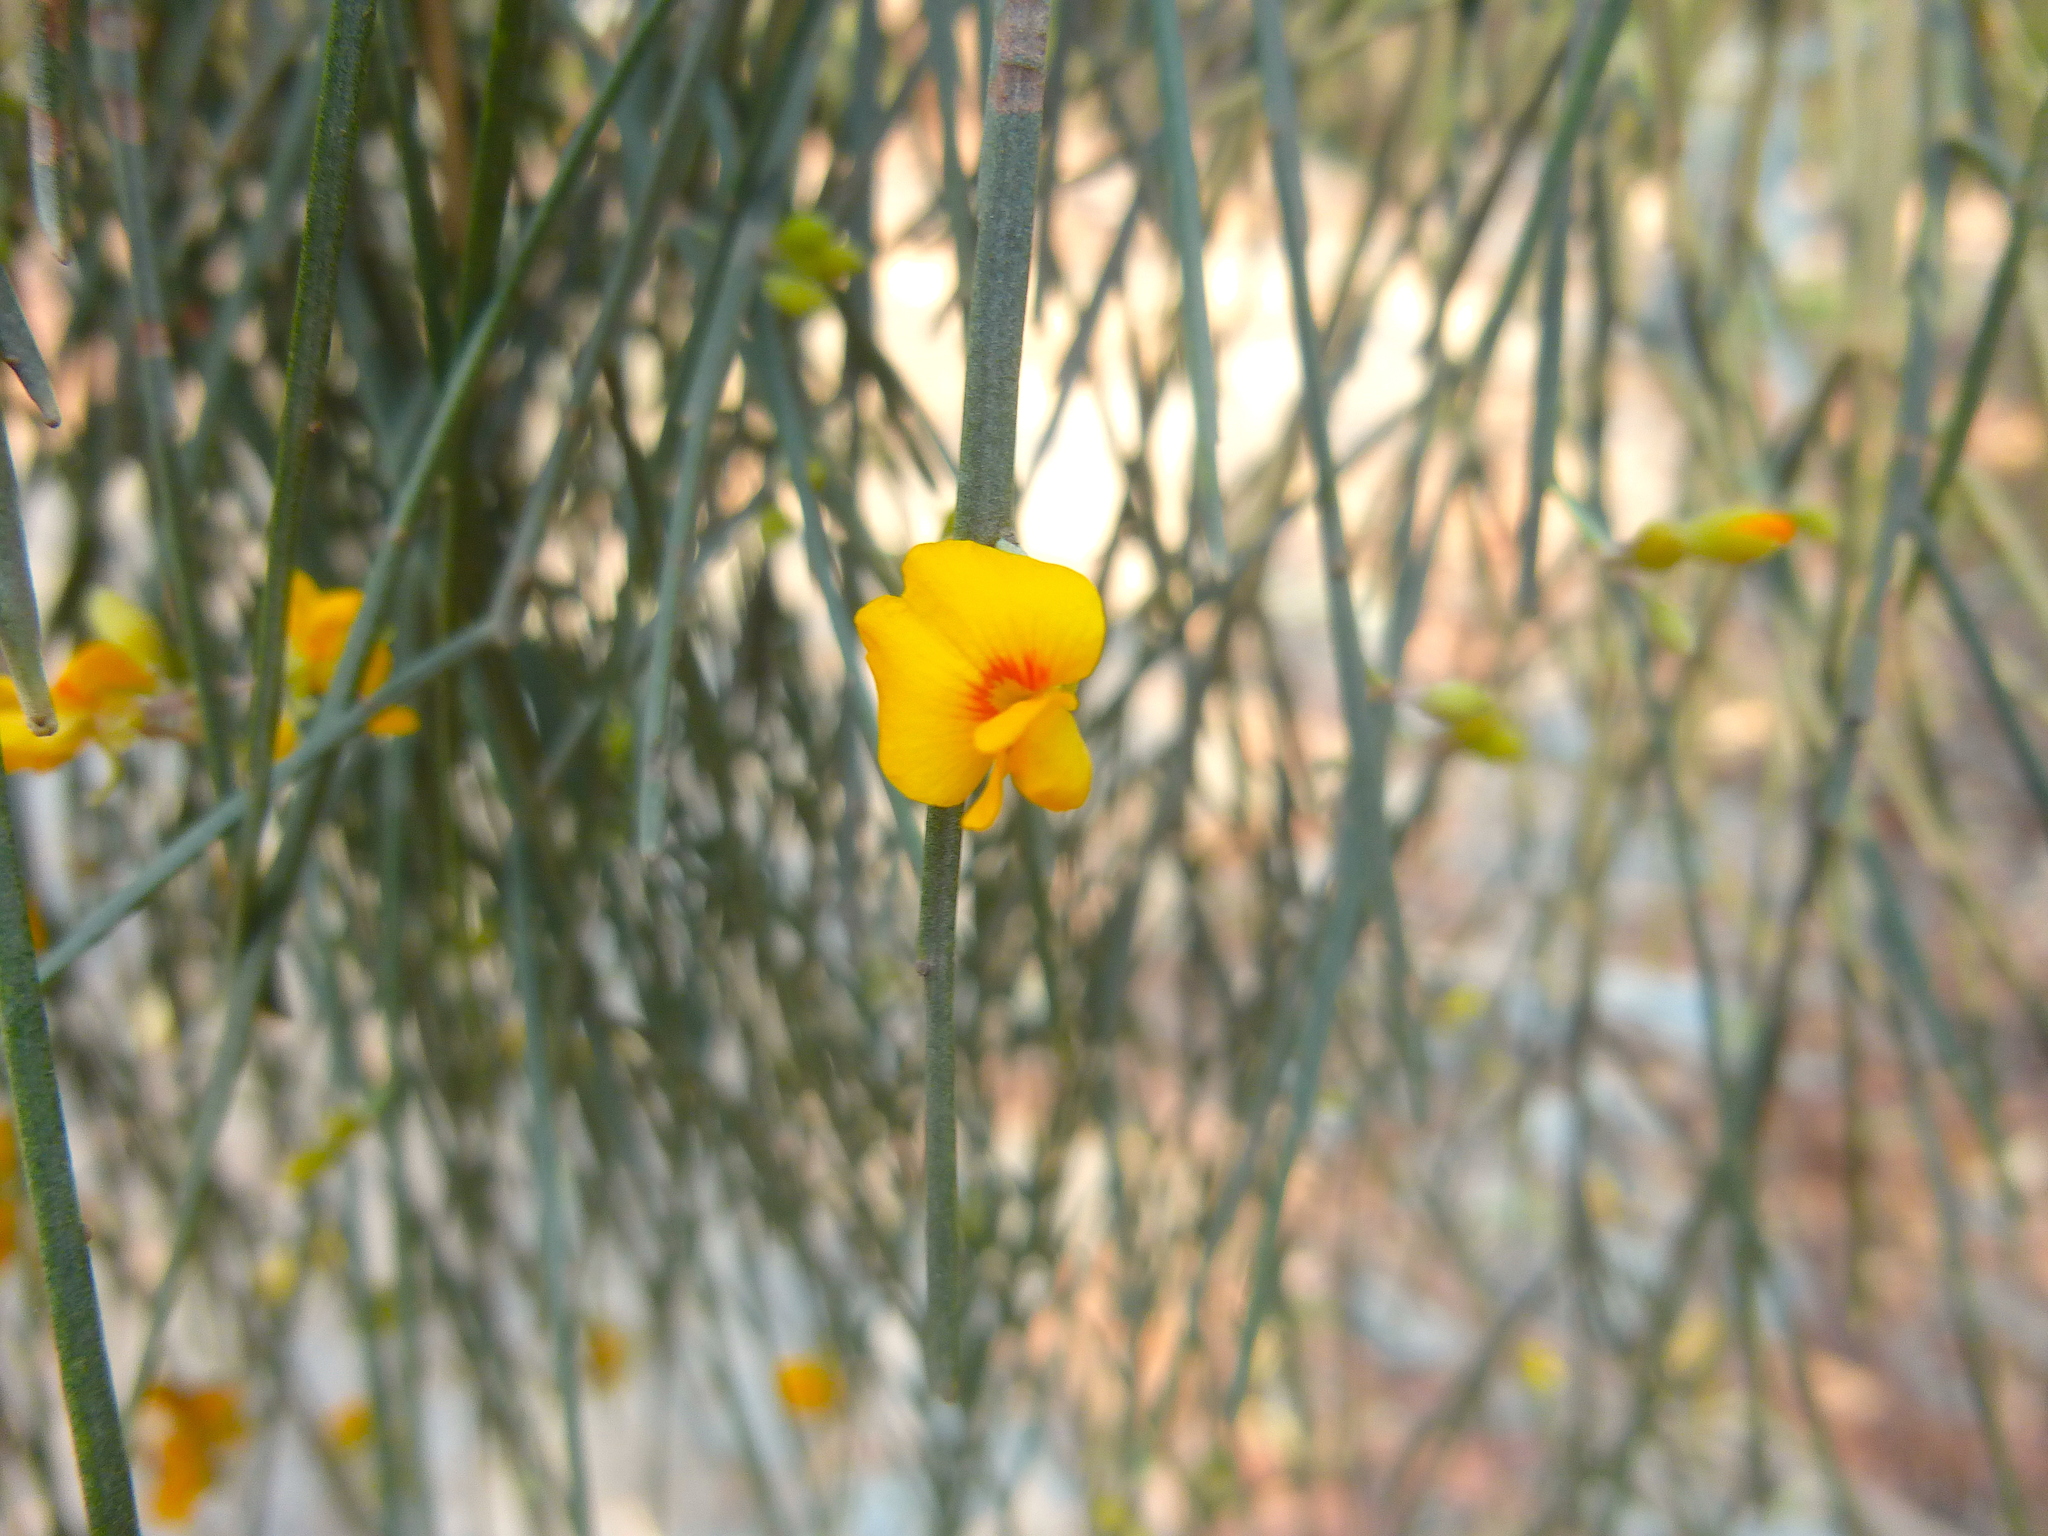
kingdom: Plantae
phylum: Tracheophyta
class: Magnoliopsida
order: Fabales
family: Fabaceae
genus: Jacksonia
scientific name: Jacksonia scoparia
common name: Dogwood
